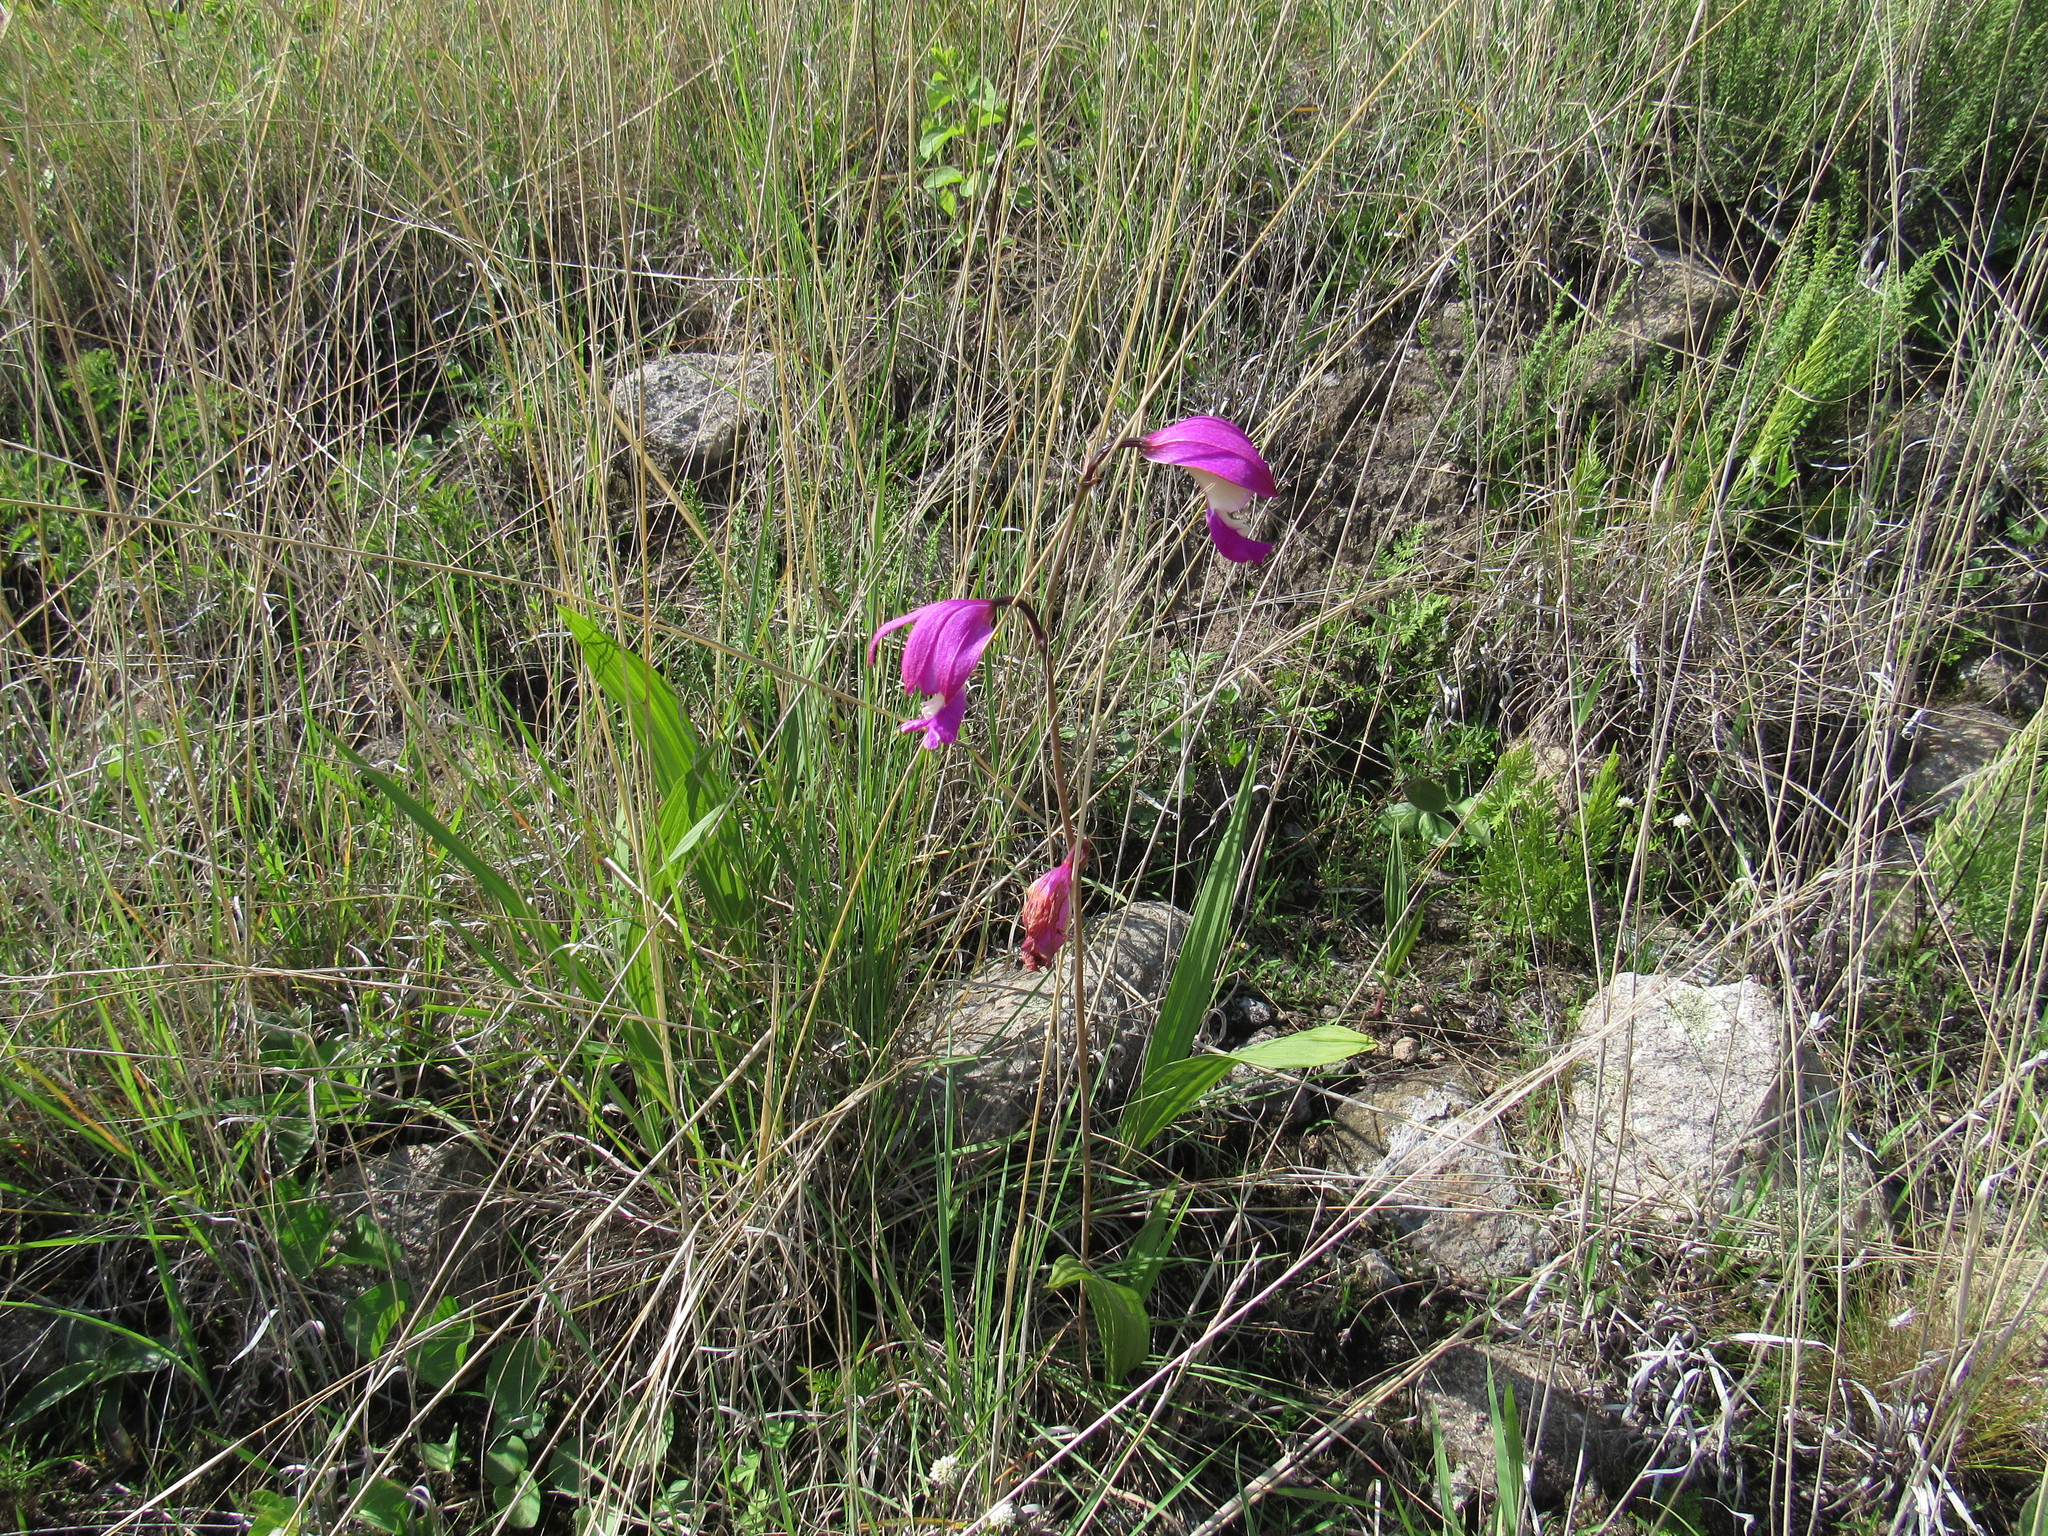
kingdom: Plantae
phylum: Tracheophyta
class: Liliopsida
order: Asparagales
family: Orchidaceae
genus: Bletia
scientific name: Bletia campanulata
